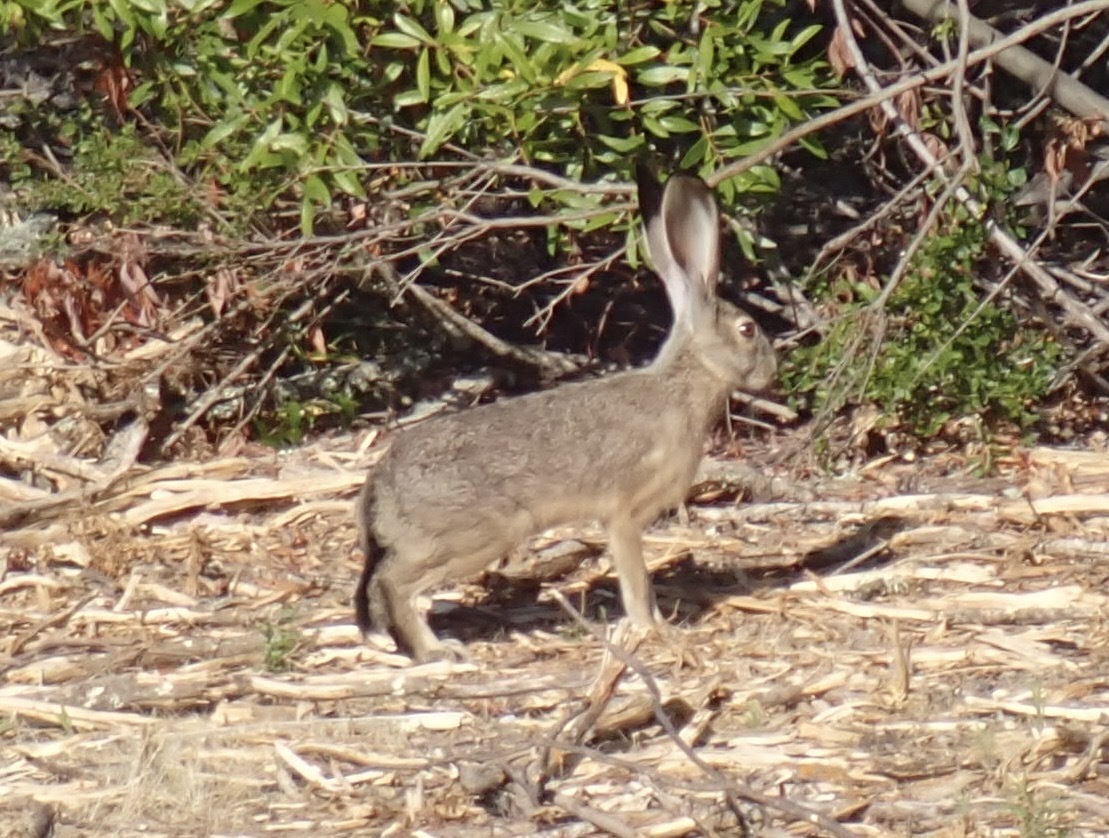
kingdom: Animalia
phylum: Chordata
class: Mammalia
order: Lagomorpha
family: Leporidae
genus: Lepus
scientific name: Lepus californicus
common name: Black-tailed jackrabbit
